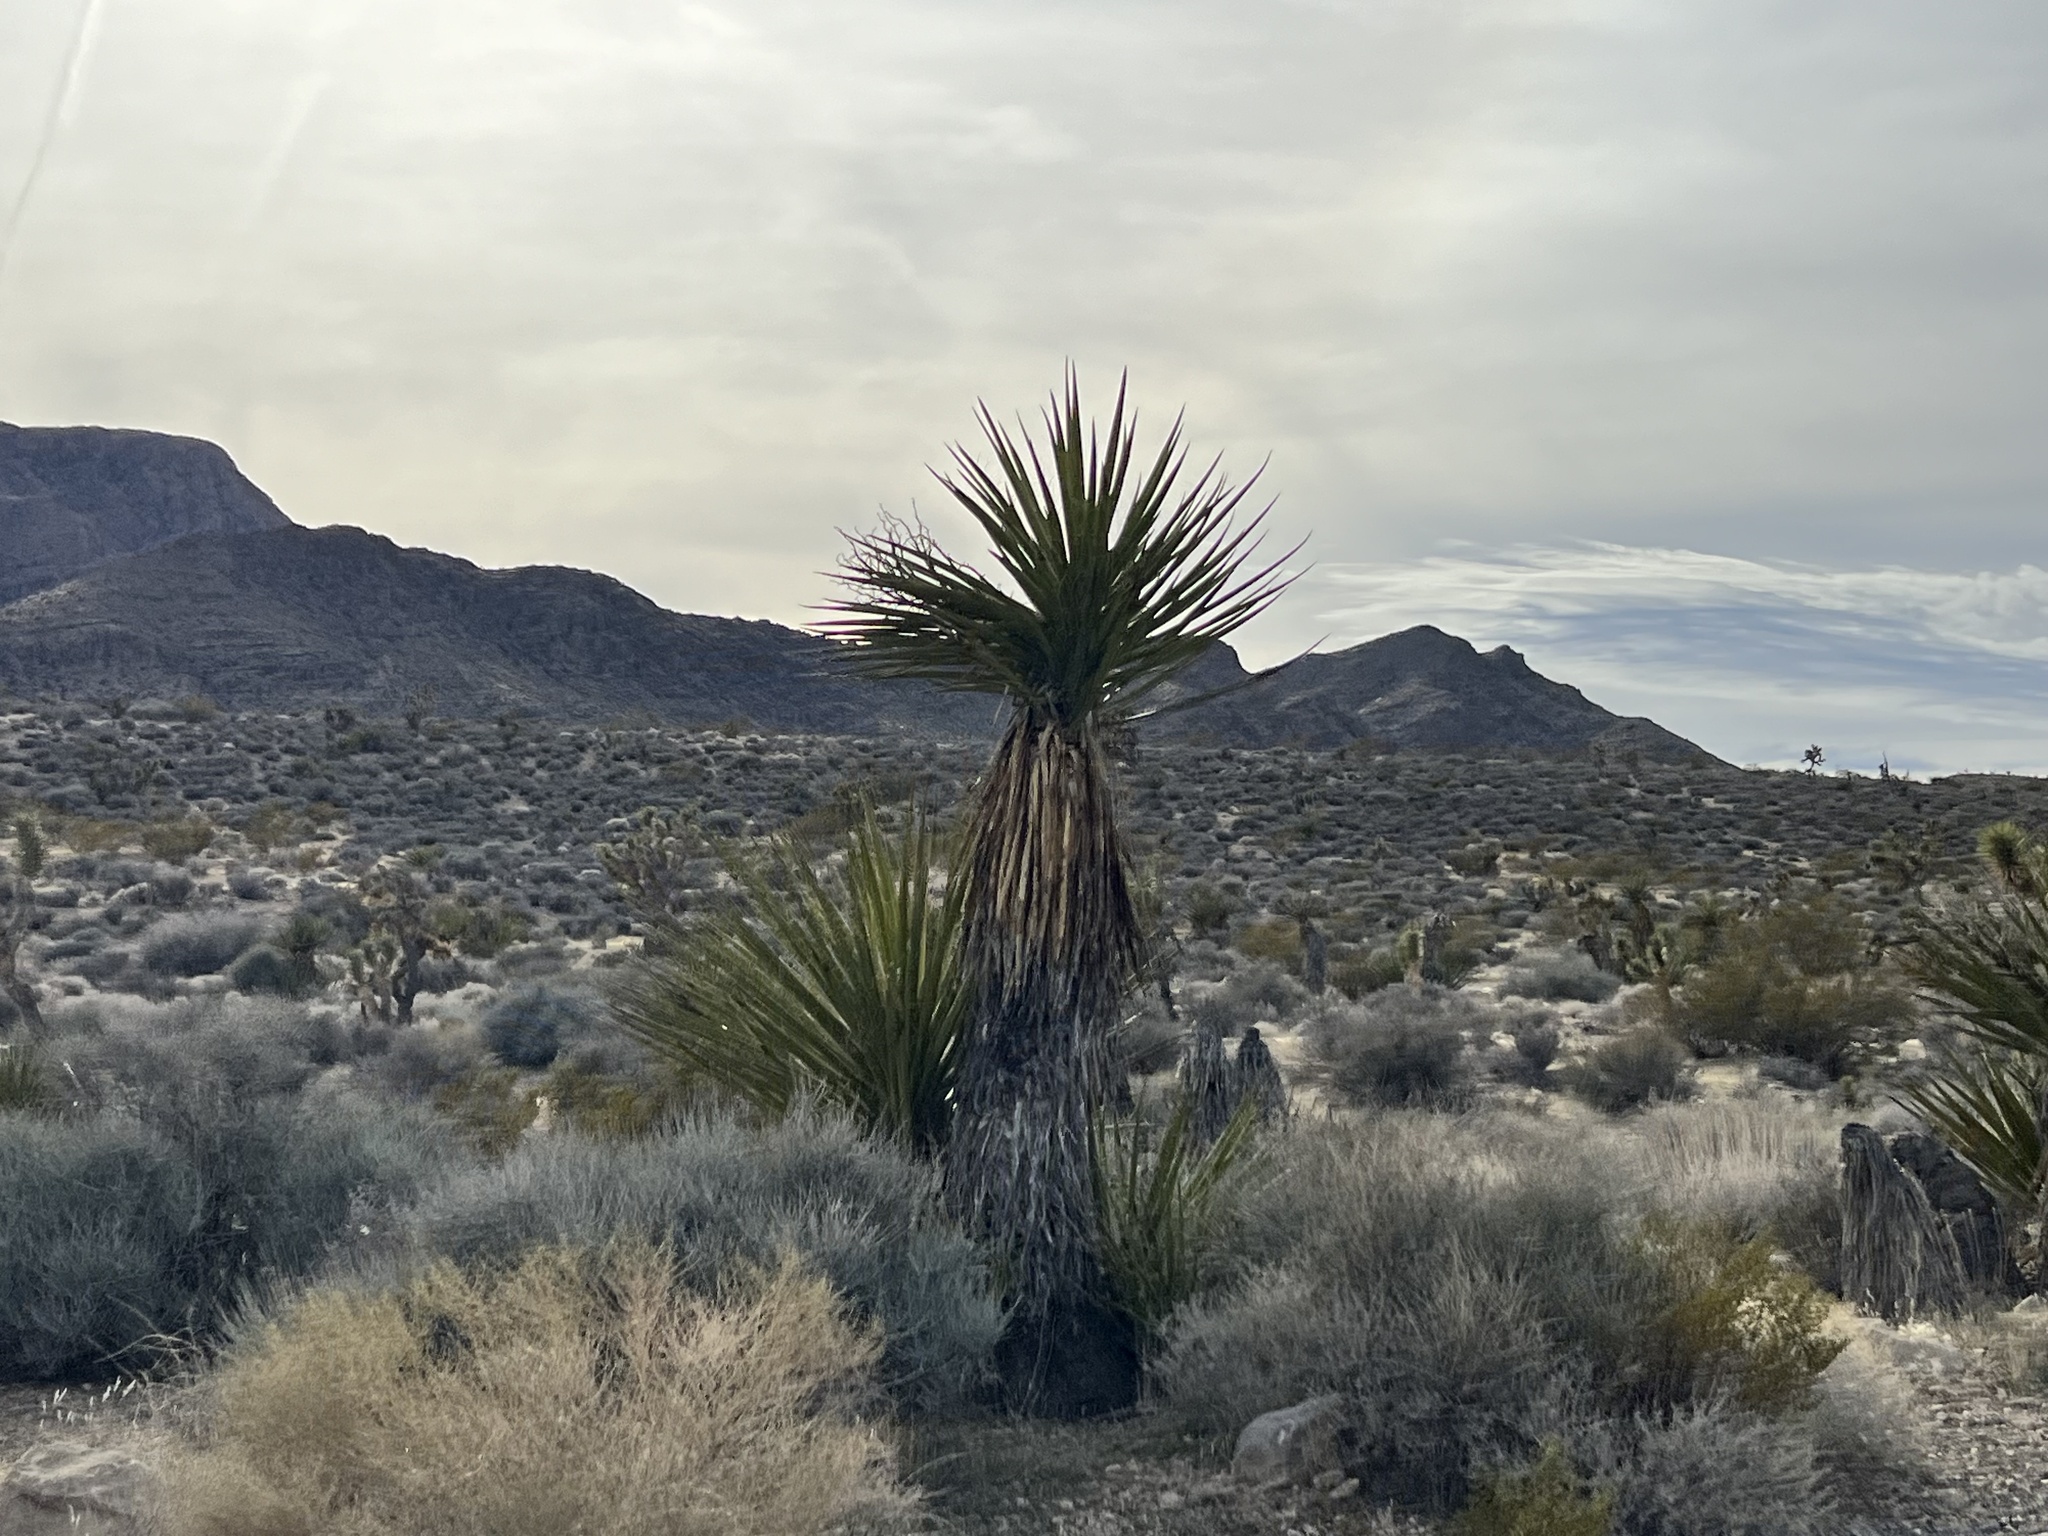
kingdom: Plantae
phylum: Tracheophyta
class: Liliopsida
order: Asparagales
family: Asparagaceae
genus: Yucca
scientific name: Yucca schidigera
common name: Mojave yucca
